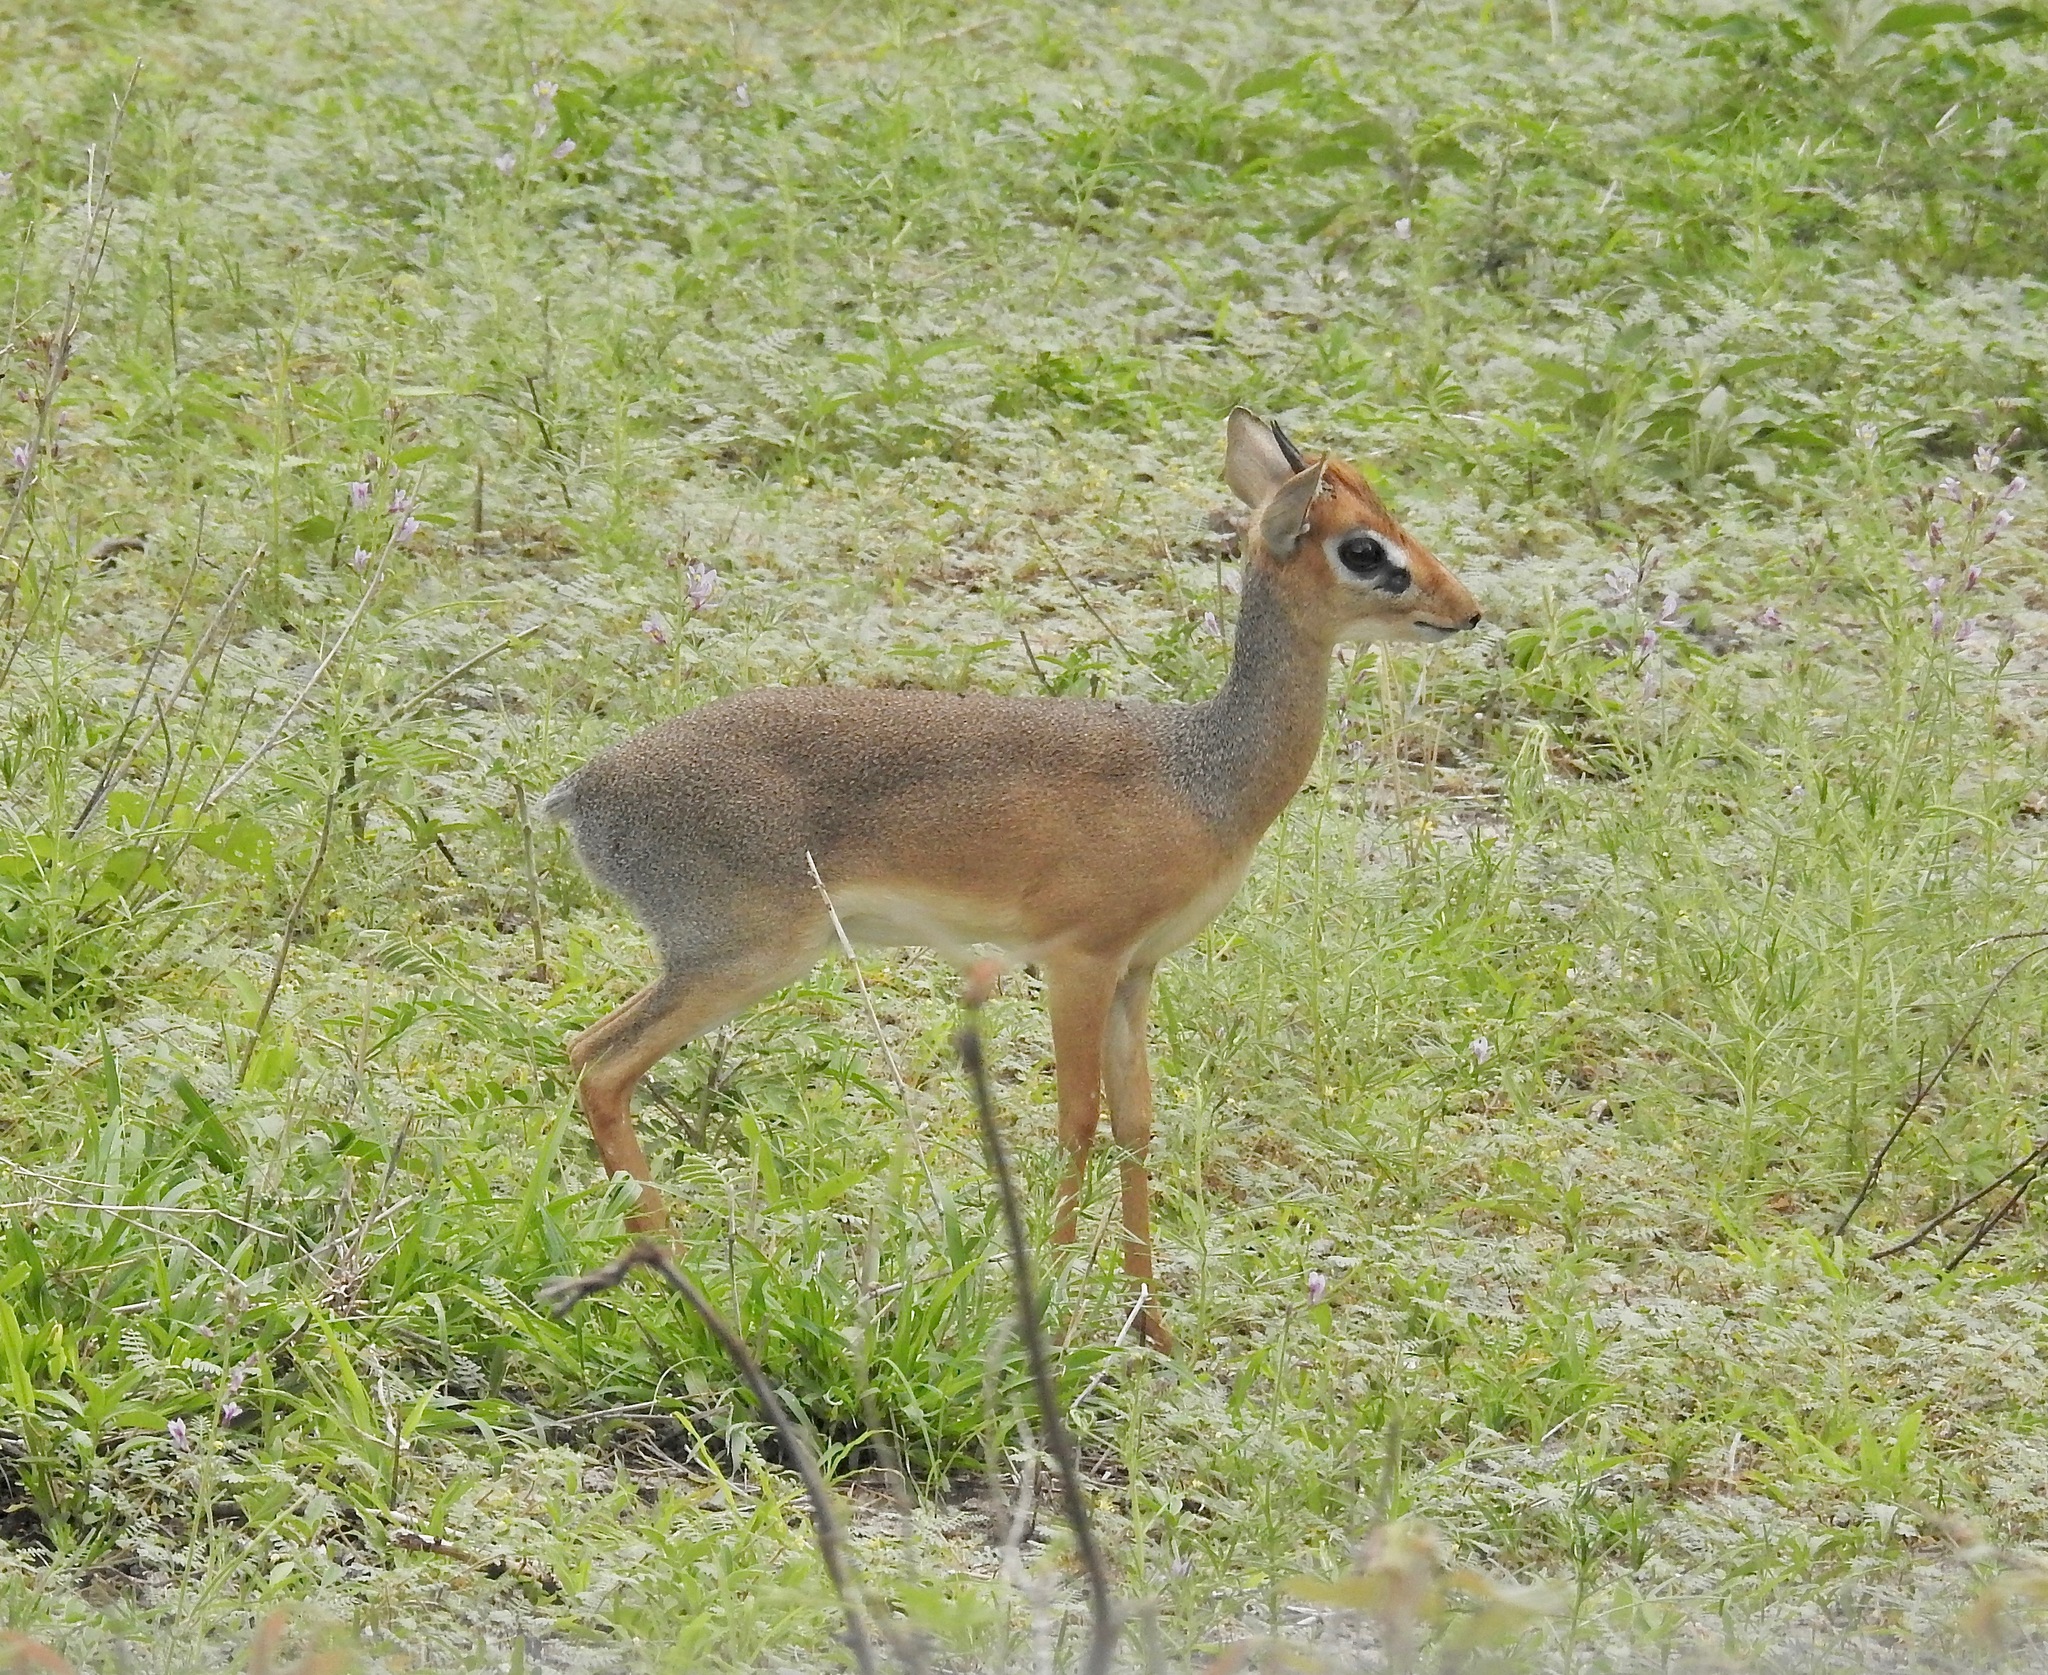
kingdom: Animalia
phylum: Chordata
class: Mammalia
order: Artiodactyla
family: Bovidae
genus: Madoqua
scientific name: Madoqua
